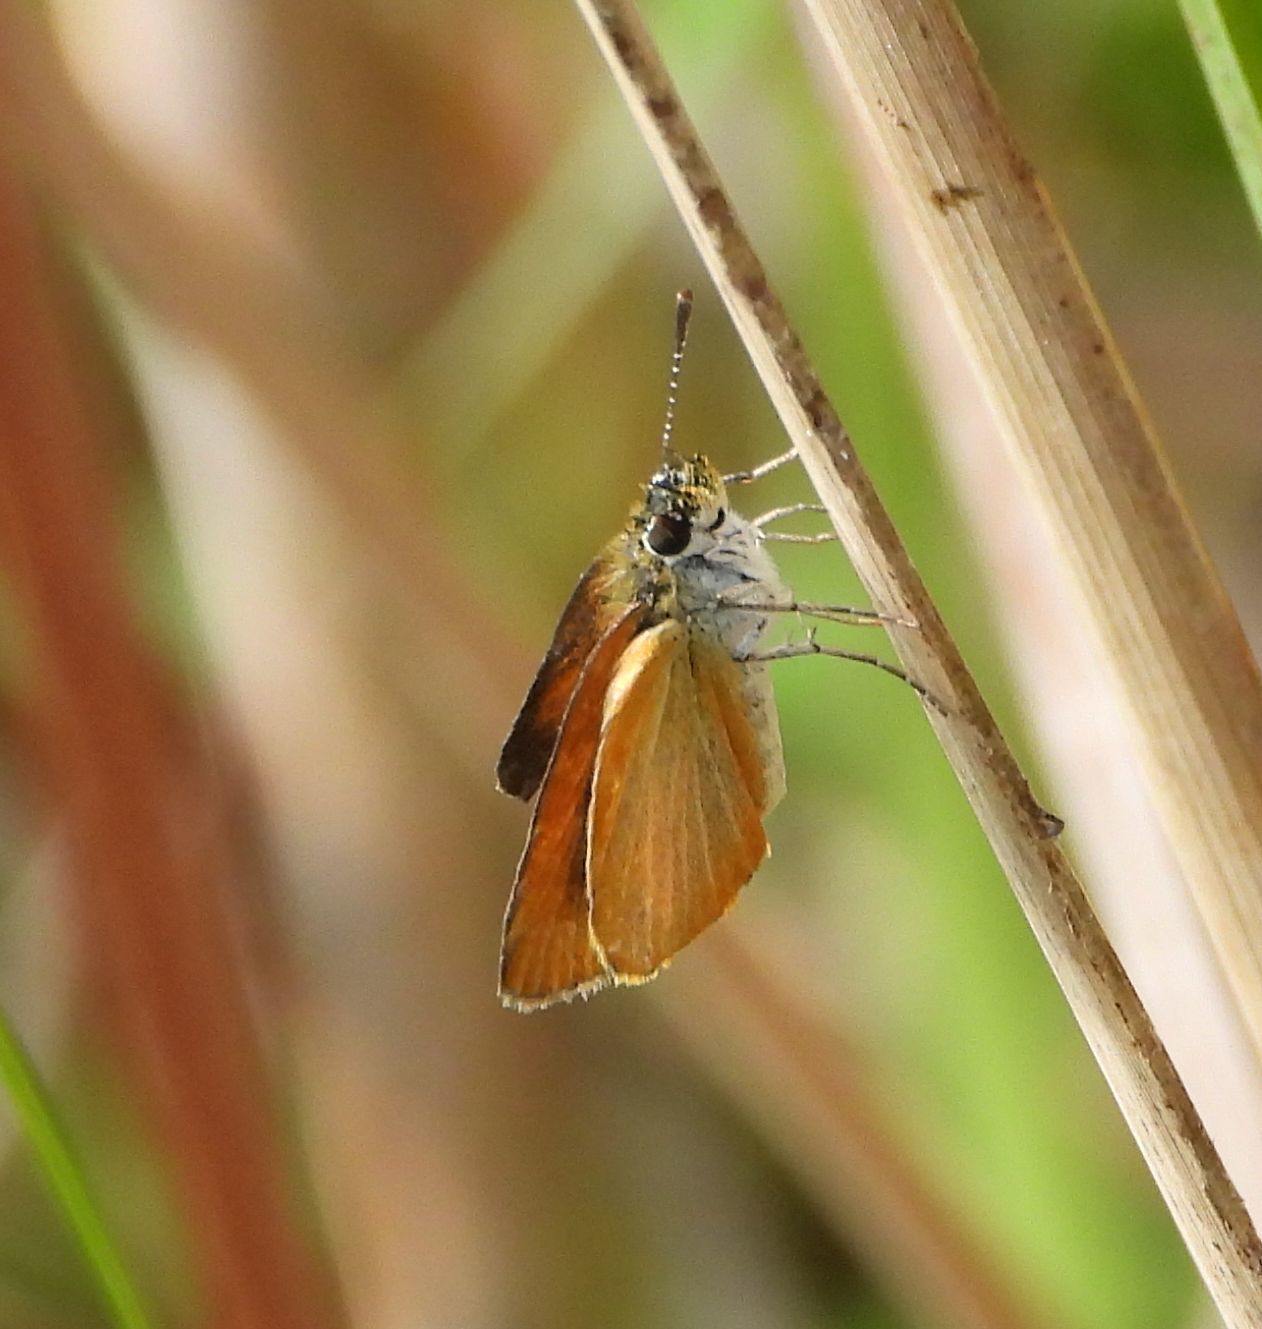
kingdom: Animalia
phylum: Arthropoda
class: Insecta
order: Lepidoptera
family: Hesperiidae
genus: Ancyloxypha
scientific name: Ancyloxypha numitor
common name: Least skipper
